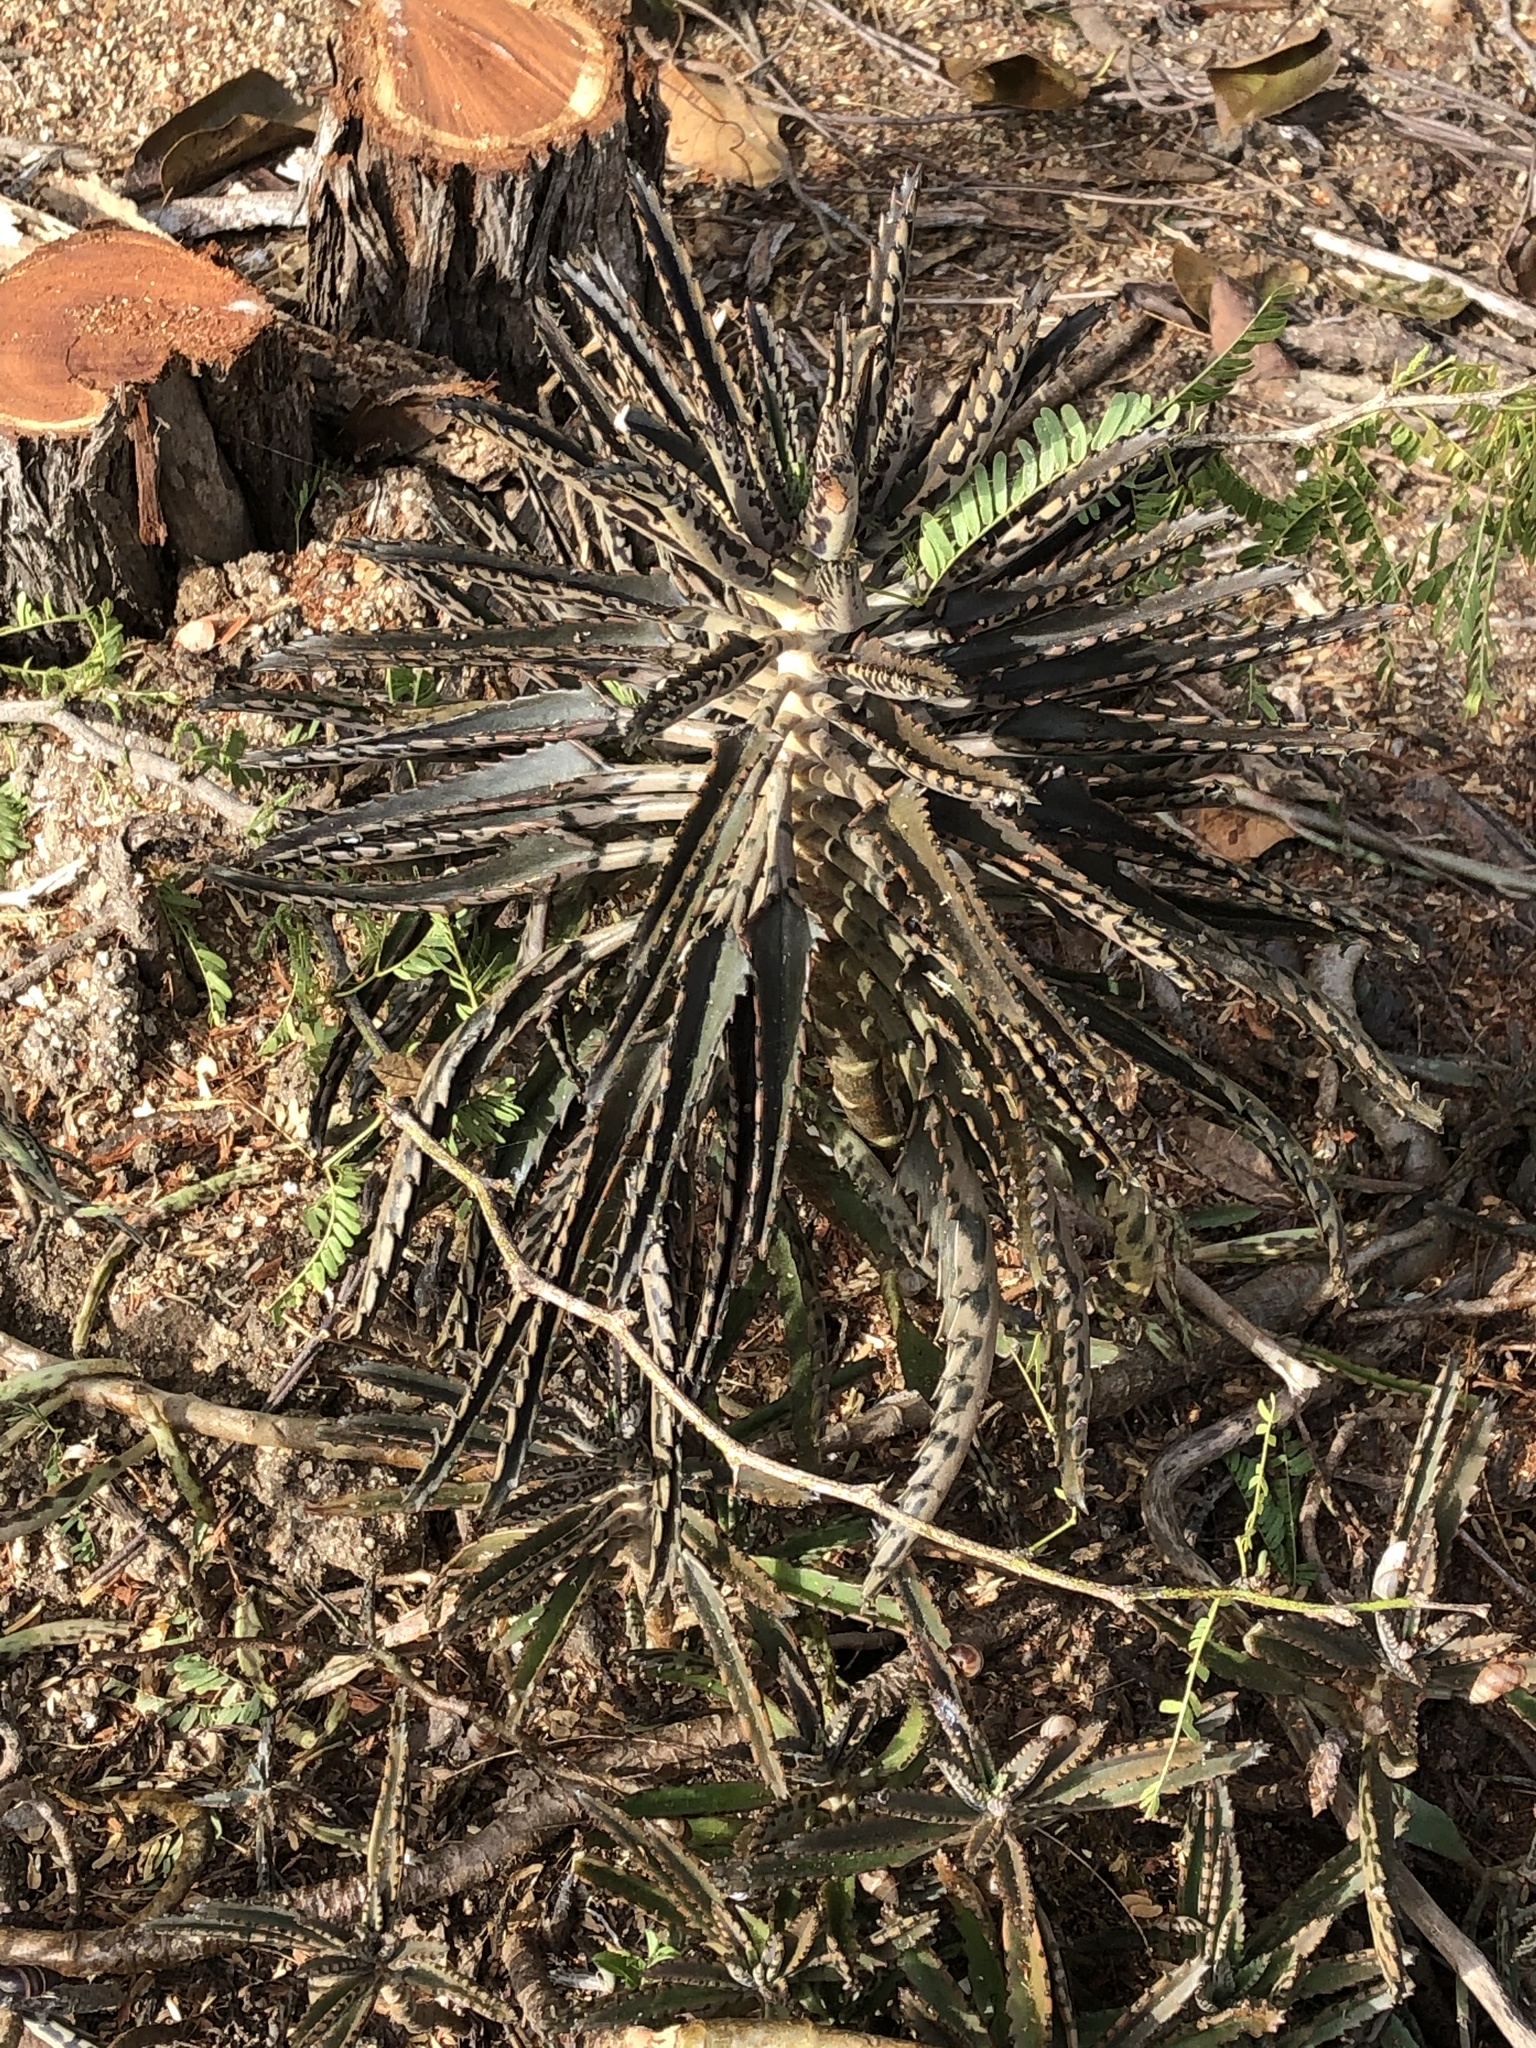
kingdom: Plantae
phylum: Tracheophyta
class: Magnoliopsida
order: Saxifragales
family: Crassulaceae
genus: Kalanchoe
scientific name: Kalanchoe houghtonii
